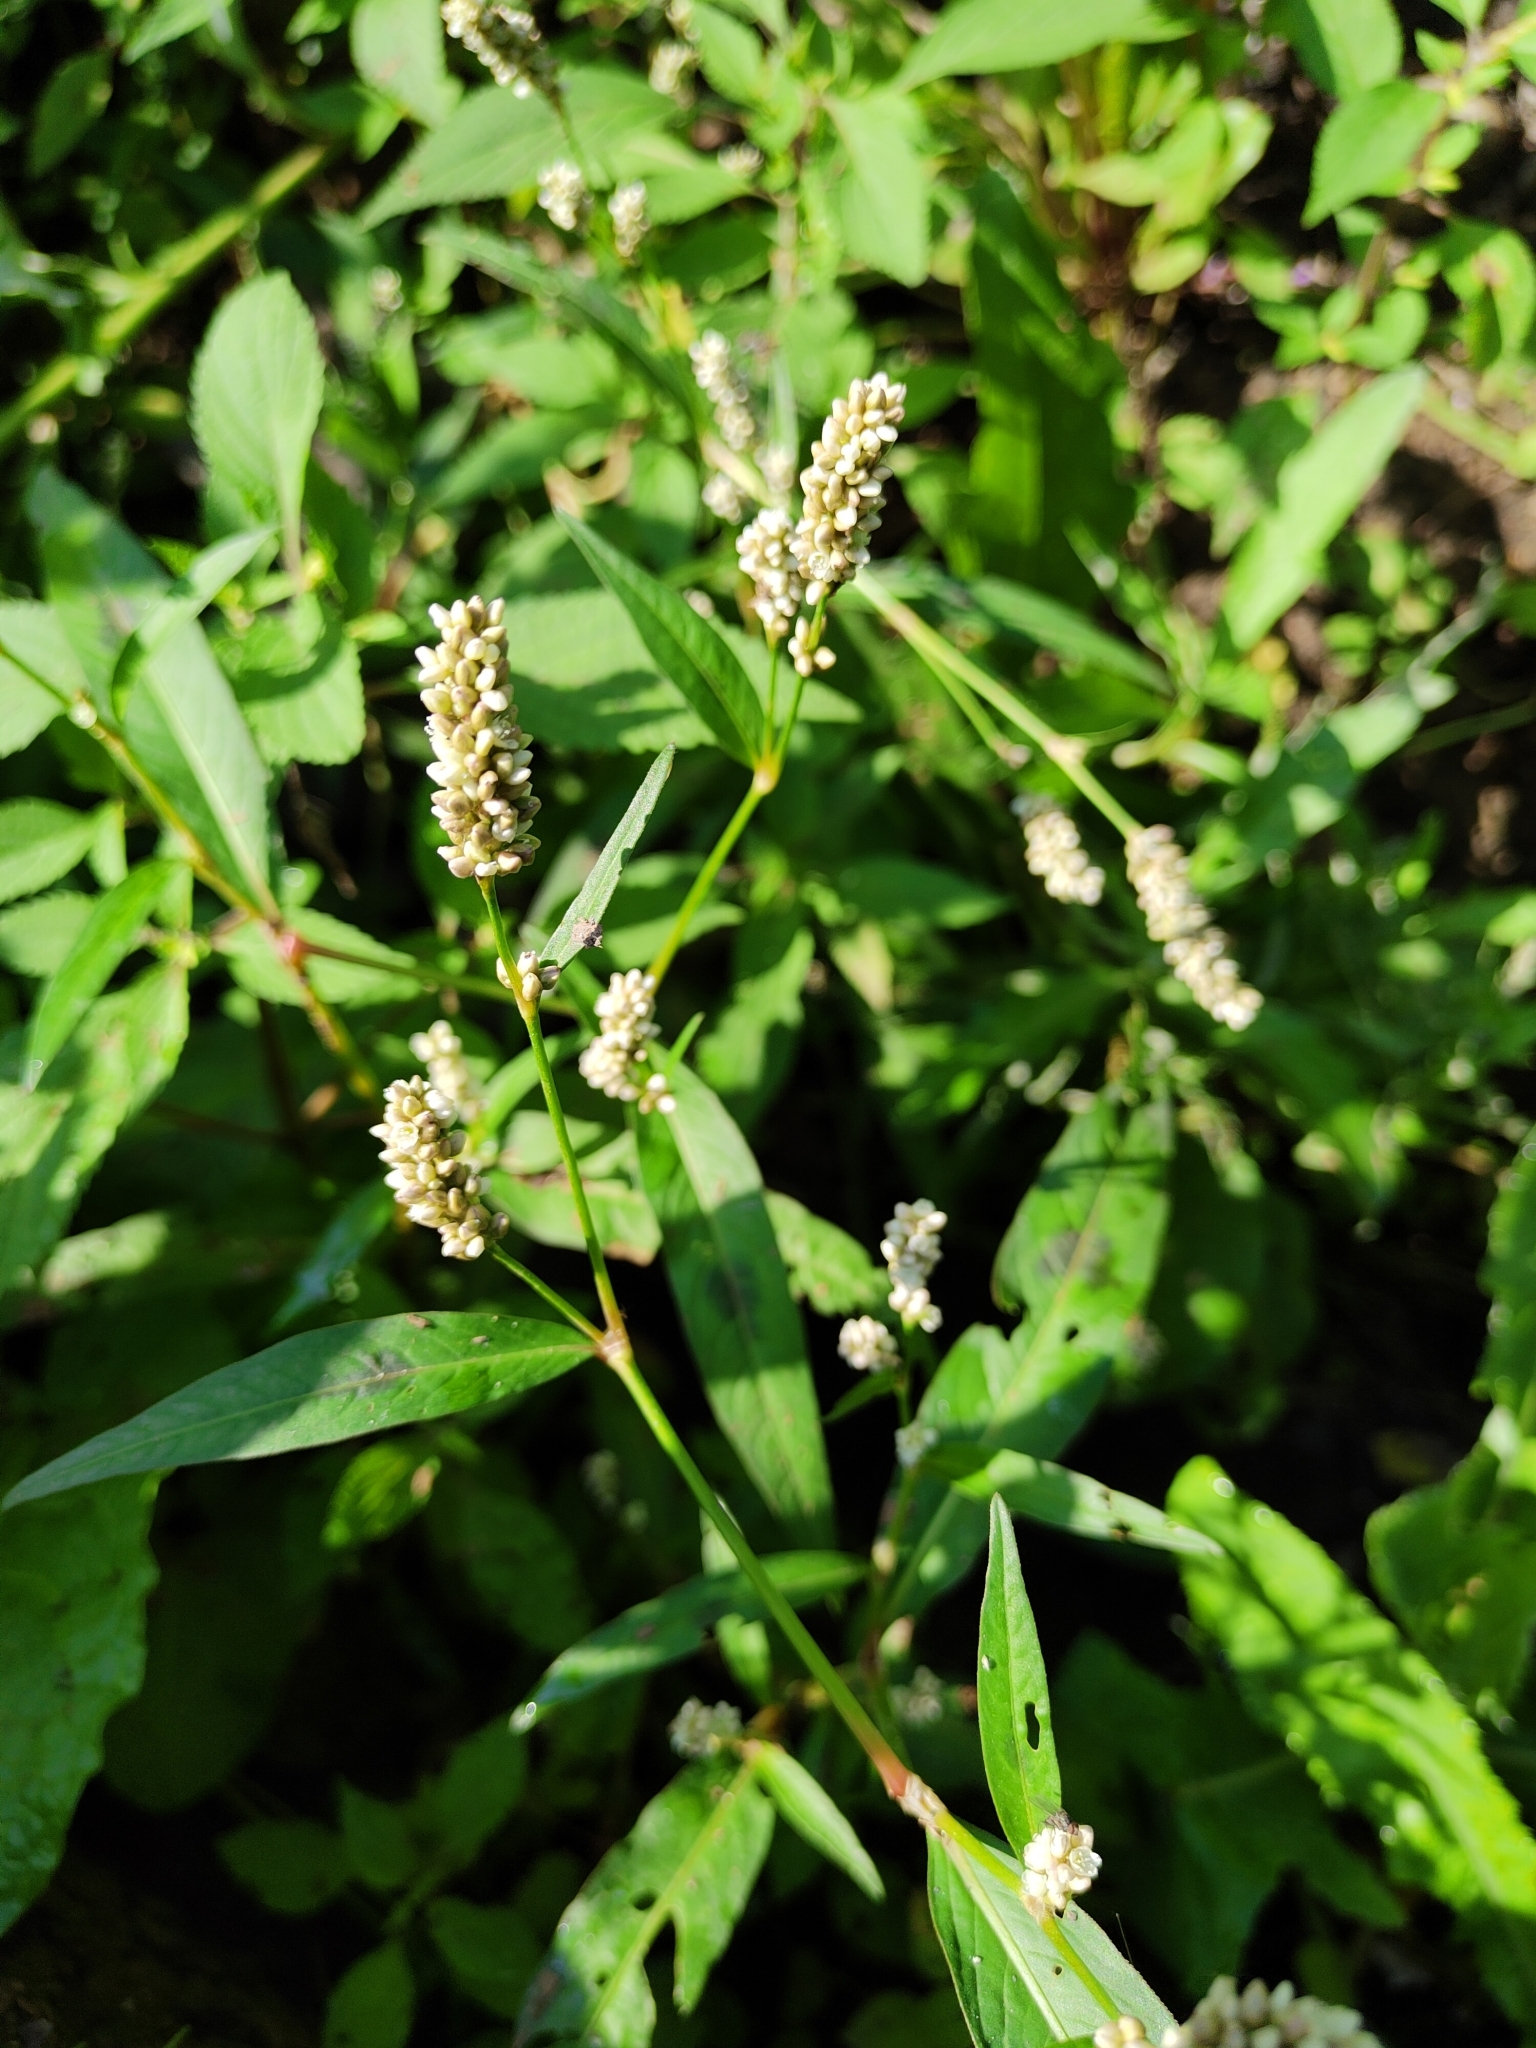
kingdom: Plantae
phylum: Tracheophyta
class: Magnoliopsida
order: Caryophyllales
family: Polygonaceae
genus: Persicaria
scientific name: Persicaria lapathifolia
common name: Curlytop knotweed
